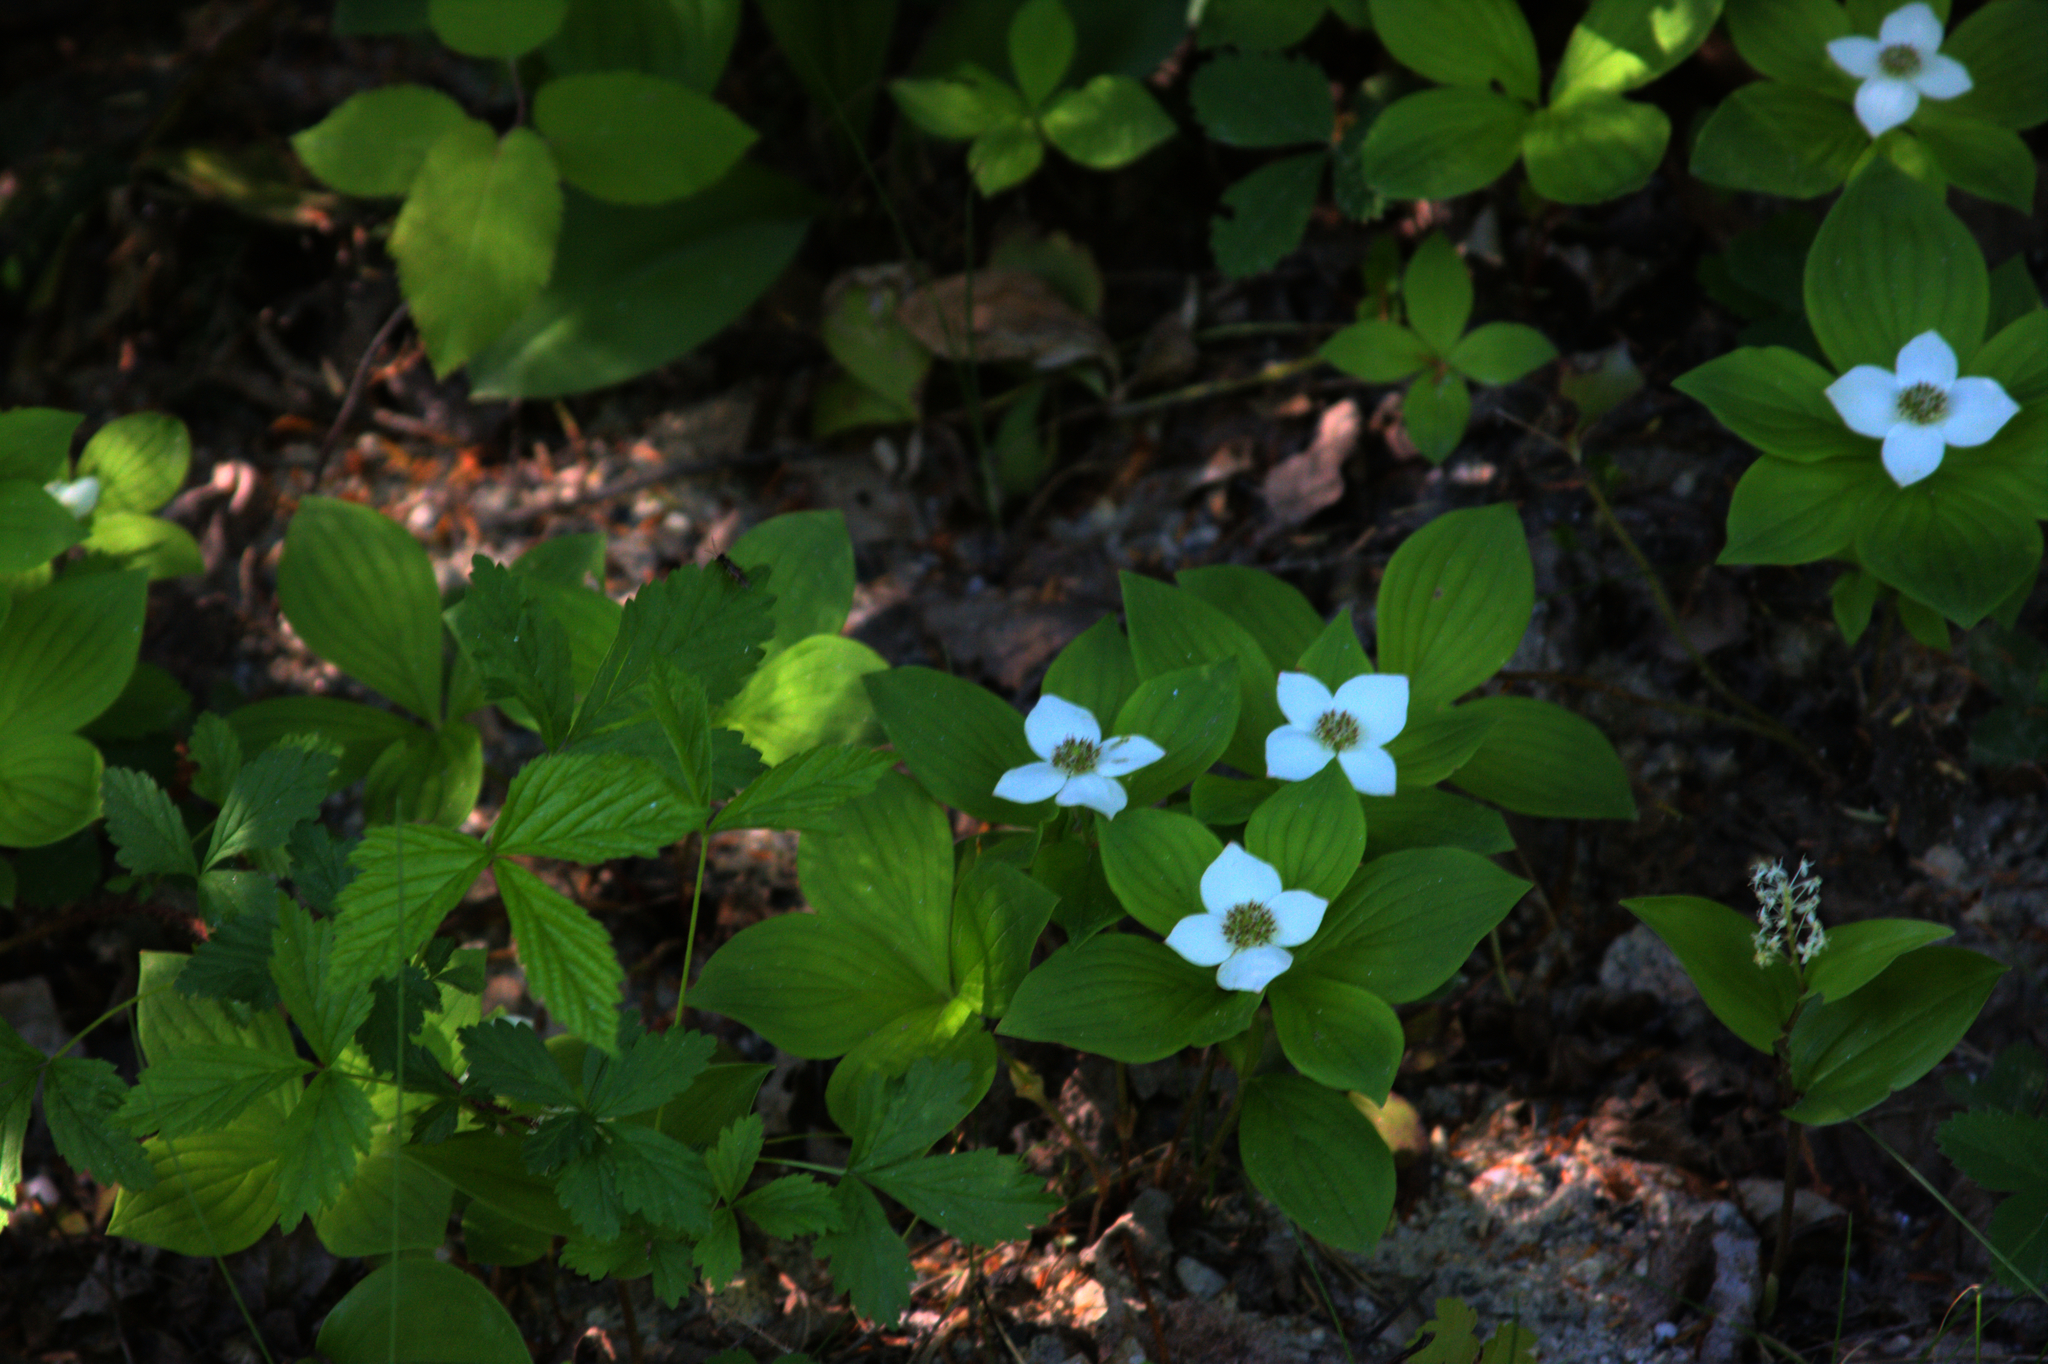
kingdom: Plantae
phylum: Tracheophyta
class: Magnoliopsida
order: Cornales
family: Cornaceae
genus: Cornus
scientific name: Cornus canadensis
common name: Creeping dogwood
